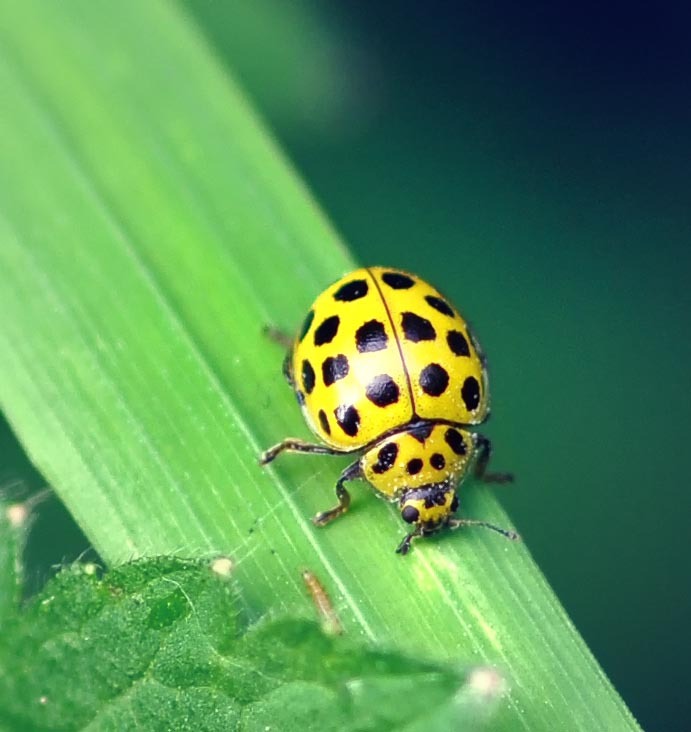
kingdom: Animalia
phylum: Arthropoda
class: Insecta
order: Coleoptera
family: Coccinellidae
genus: Psyllobora
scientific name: Psyllobora vigintiduopunctata
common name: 22-spot ladybird
